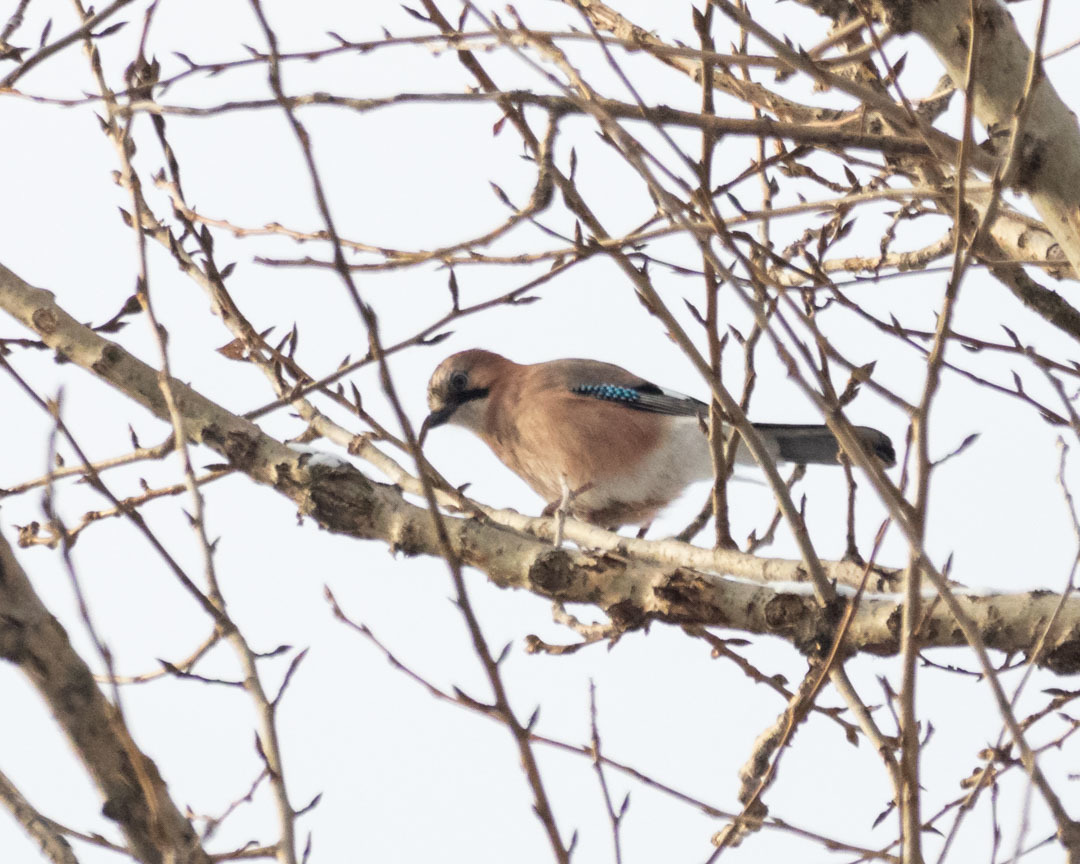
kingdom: Animalia
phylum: Chordata
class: Aves
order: Passeriformes
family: Corvidae
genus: Garrulus
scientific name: Garrulus glandarius
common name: Eurasian jay
